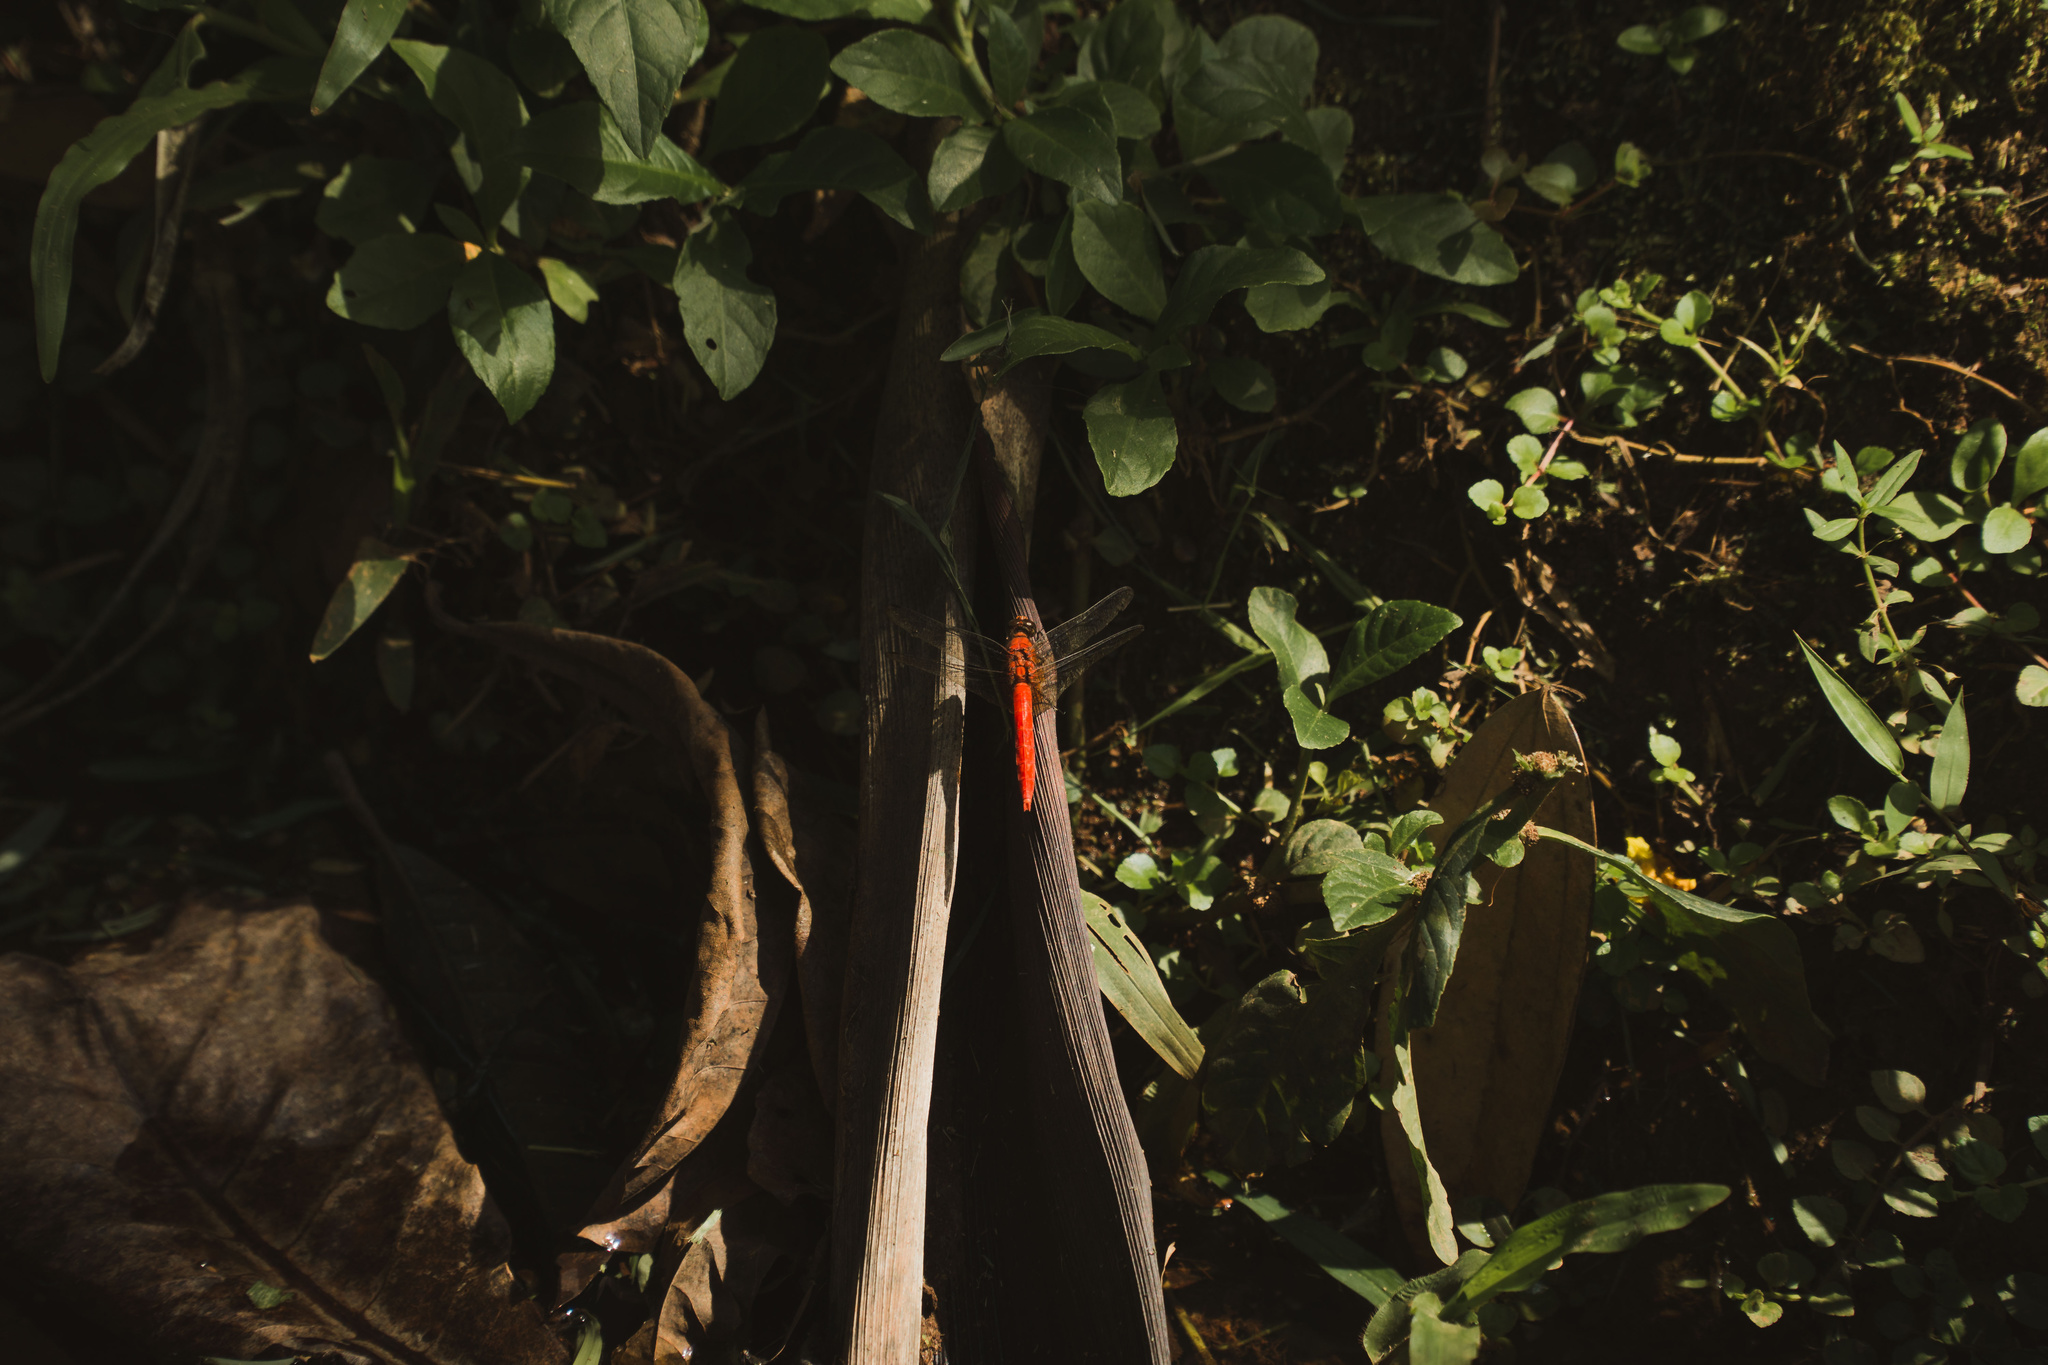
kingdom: Animalia
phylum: Arthropoda
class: Insecta
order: Odonata
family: Libellulidae
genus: Orthetrum
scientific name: Orthetrum testaceum
